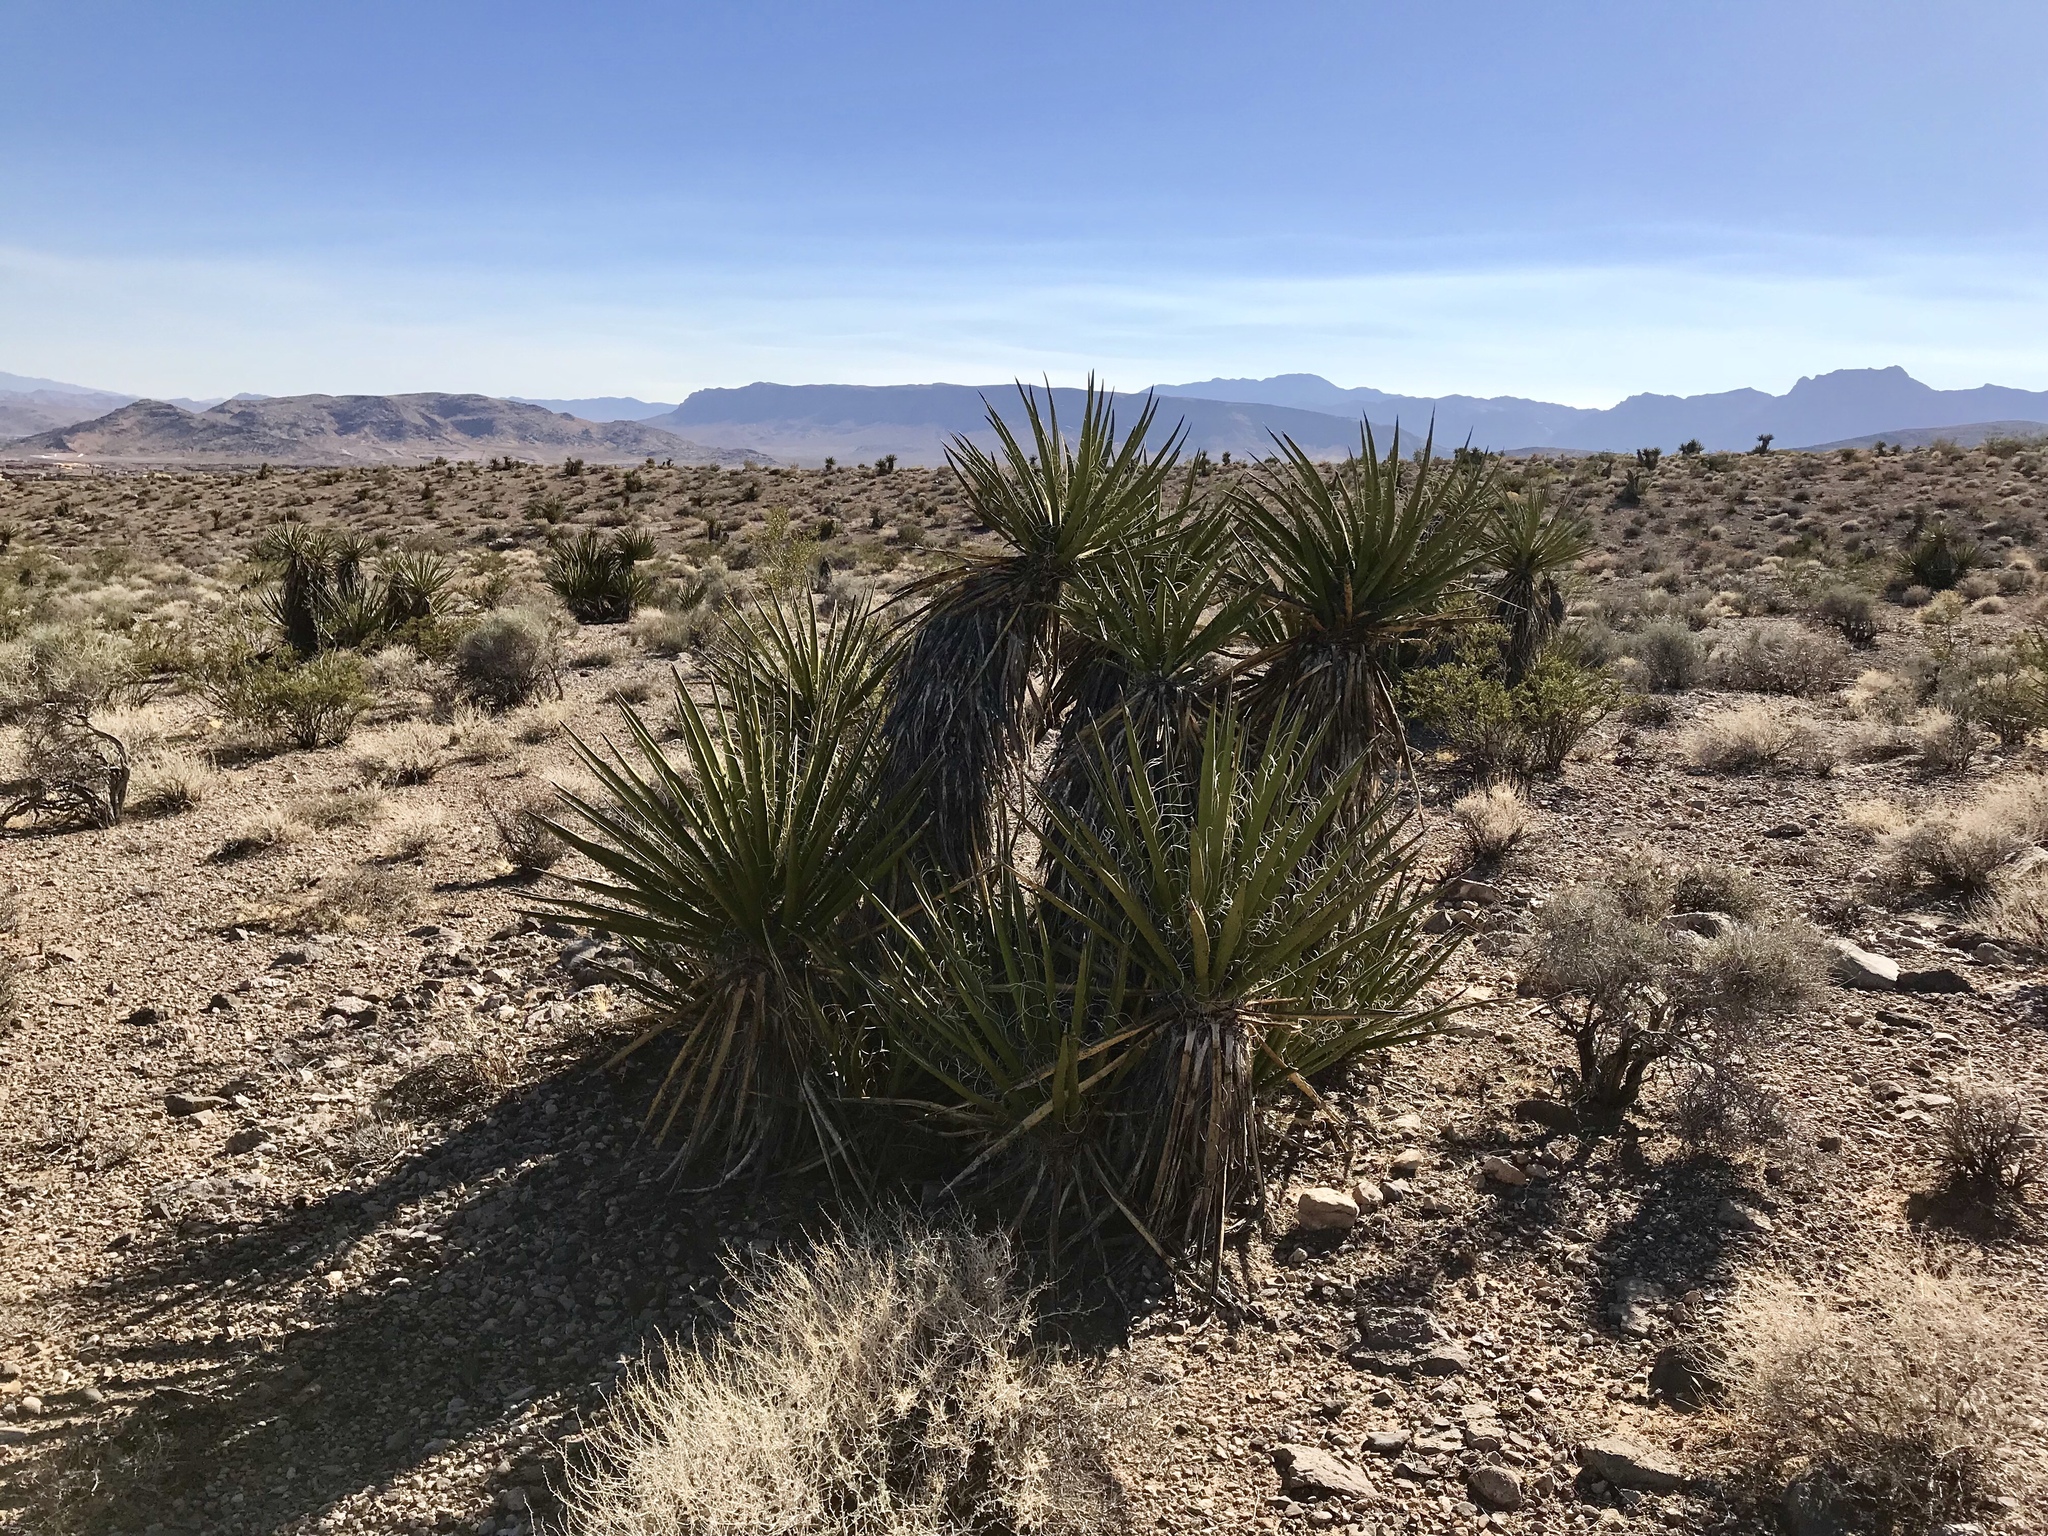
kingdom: Plantae
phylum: Tracheophyta
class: Liliopsida
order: Asparagales
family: Asparagaceae
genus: Yucca
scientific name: Yucca schidigera
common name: Mojave yucca
